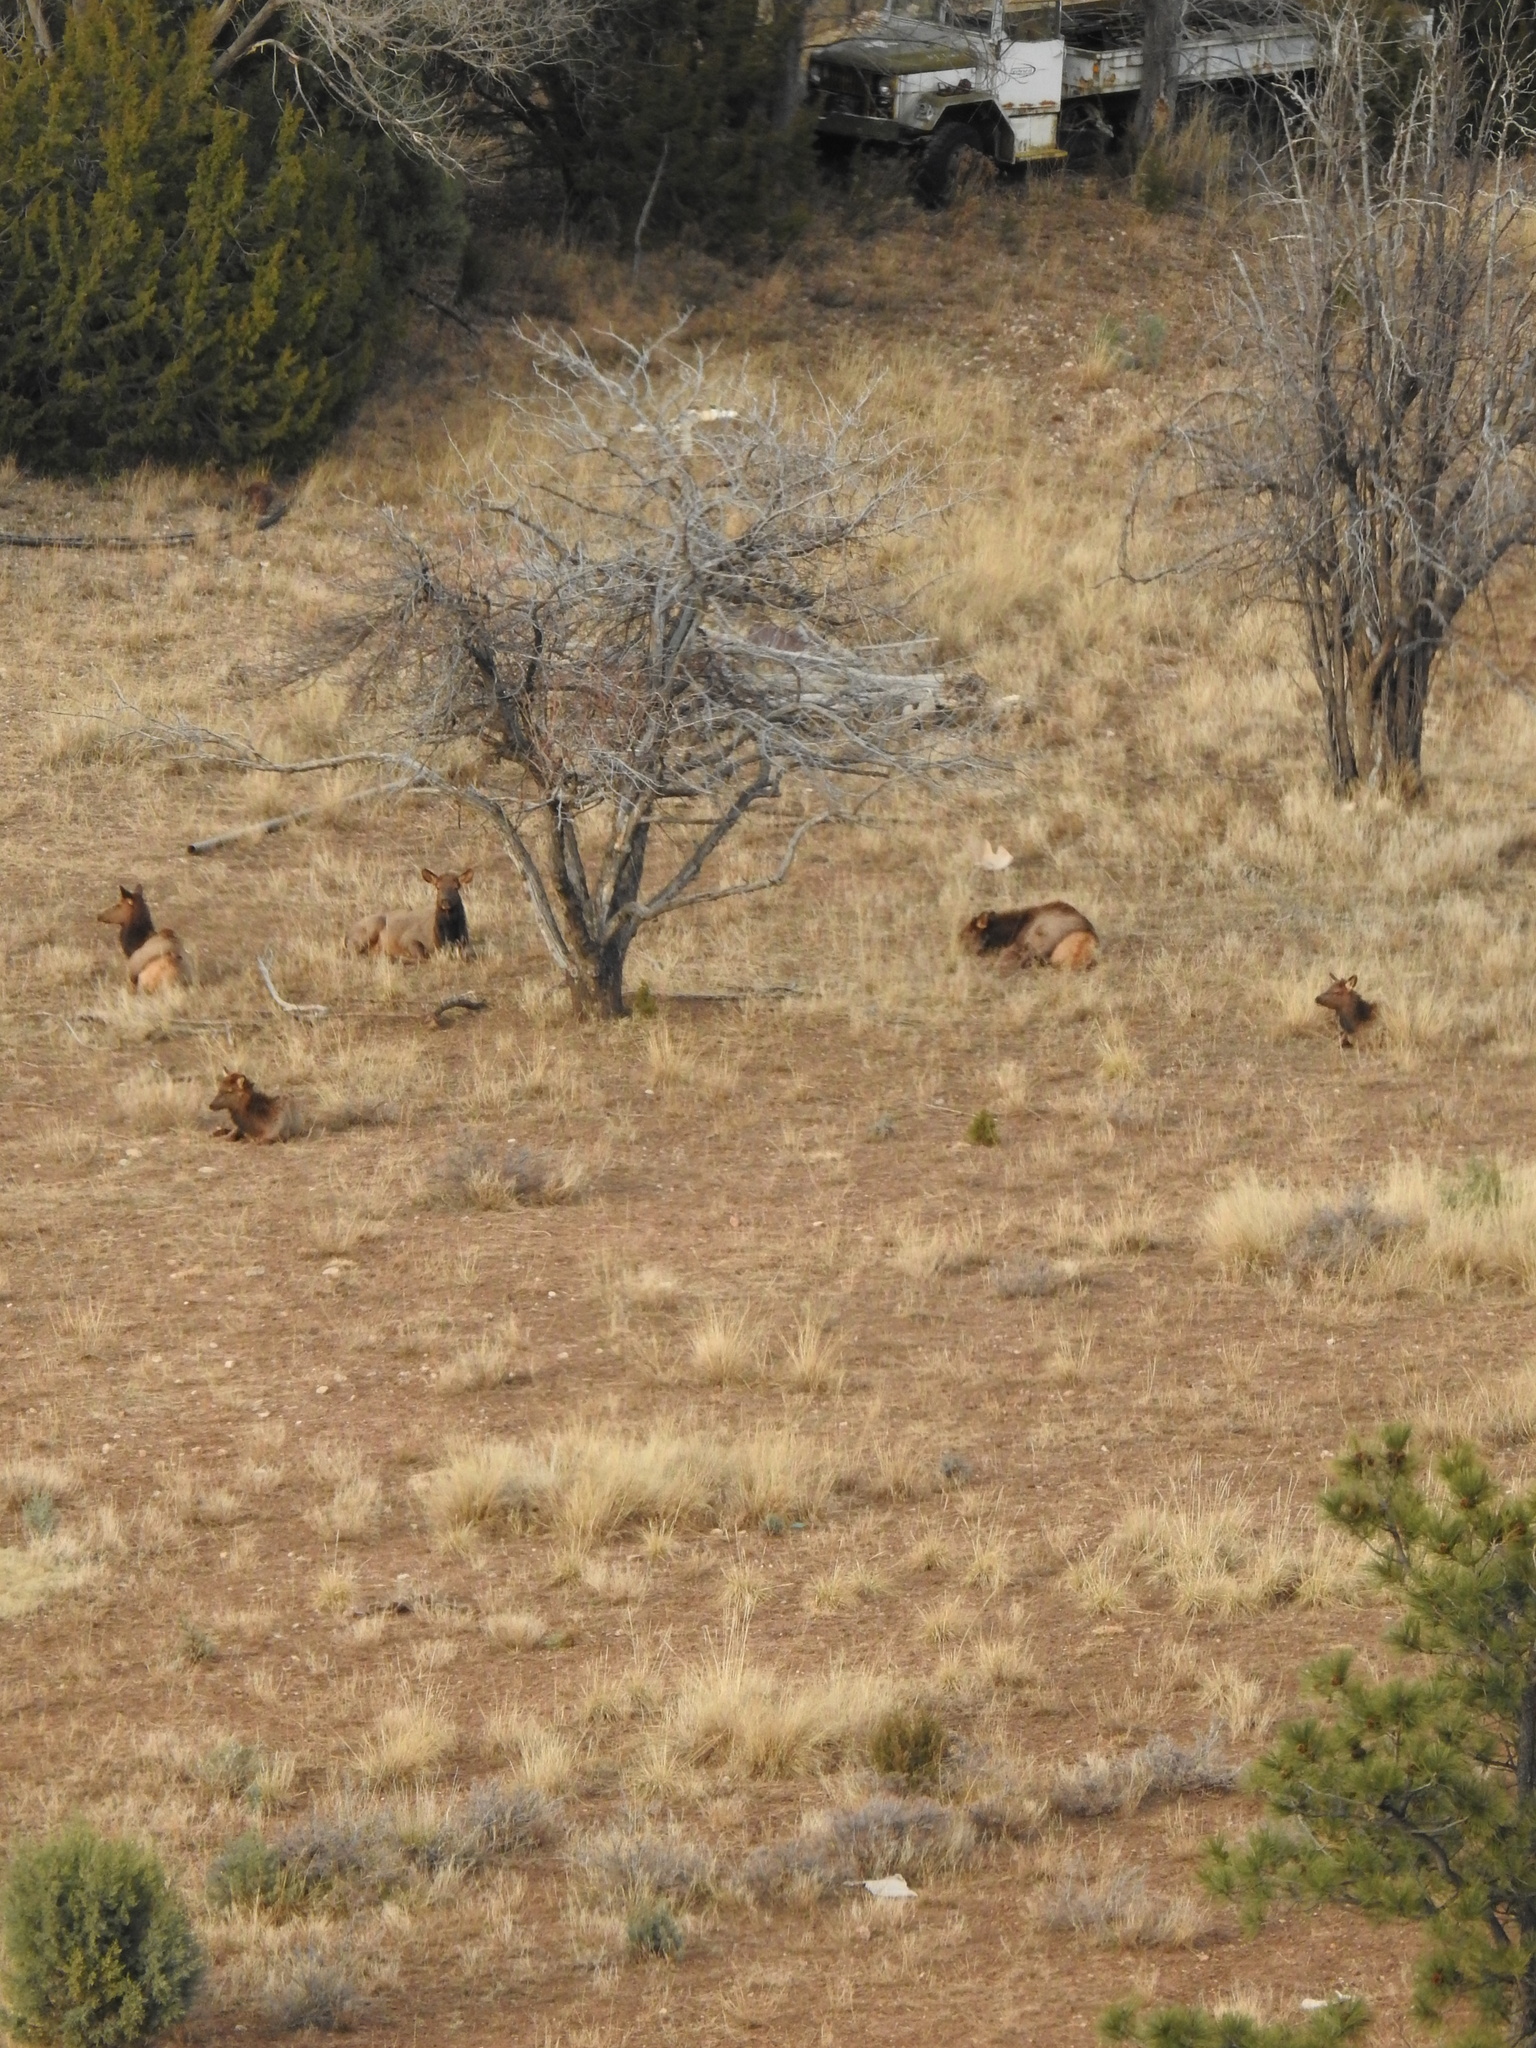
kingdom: Animalia
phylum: Chordata
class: Mammalia
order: Artiodactyla
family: Cervidae
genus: Cervus
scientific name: Cervus elaphus
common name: Red deer
